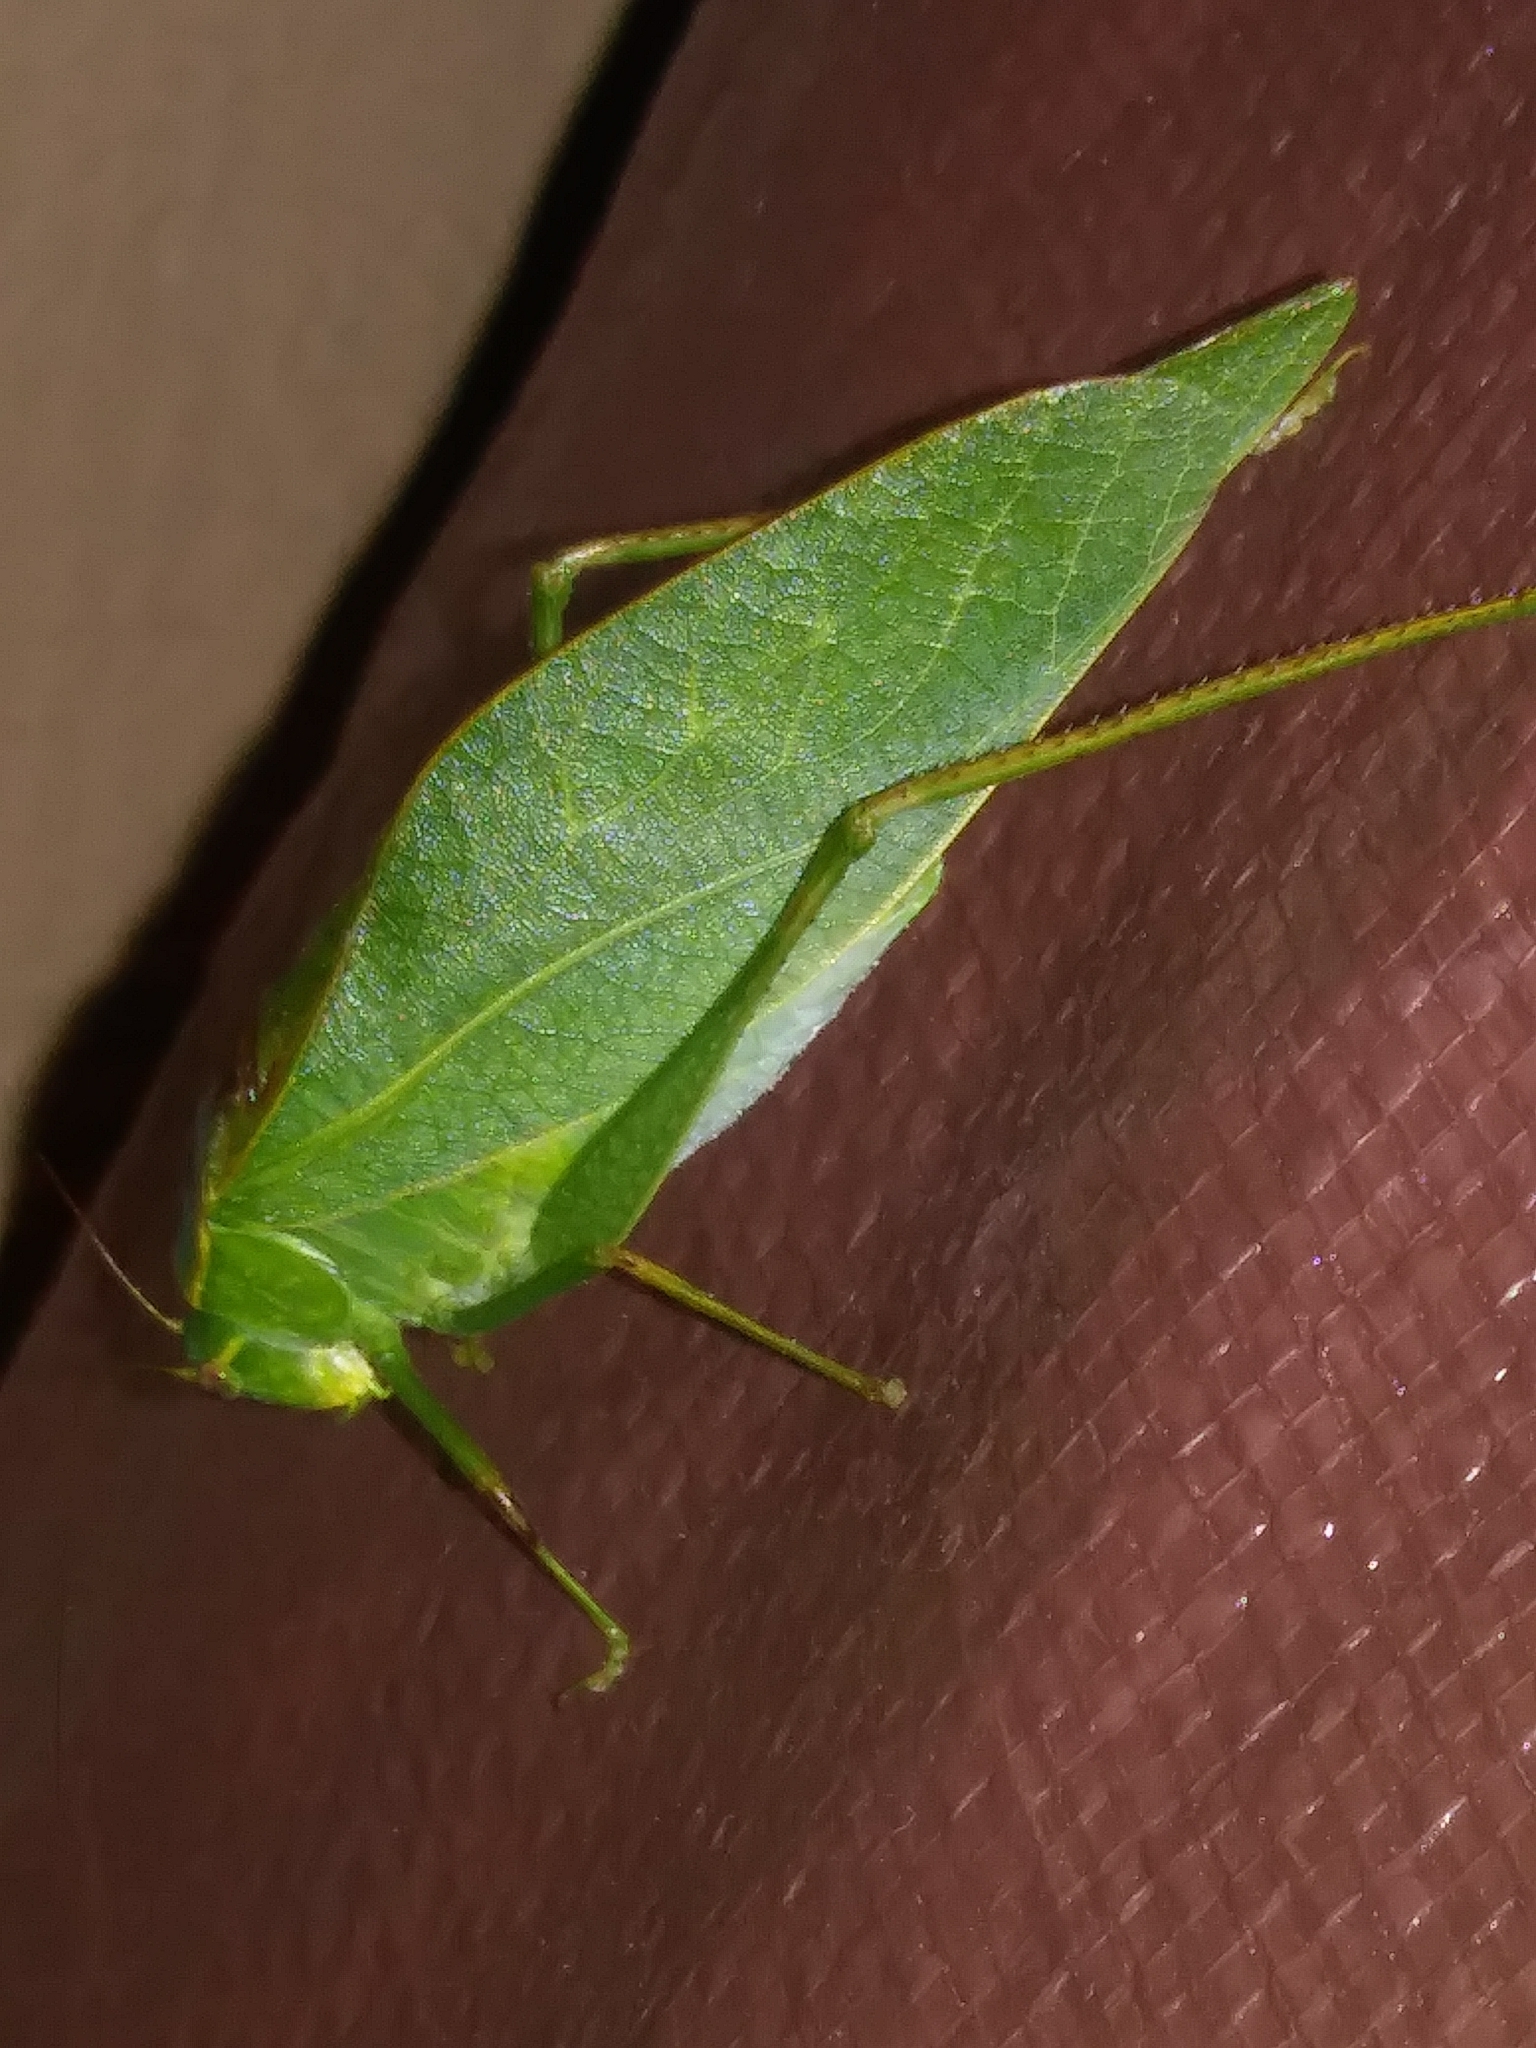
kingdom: Animalia
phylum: Arthropoda
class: Insecta
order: Orthoptera
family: Tettigoniidae
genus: Microcentrum
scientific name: Microcentrum retinerve
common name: Angular-winged katydid
